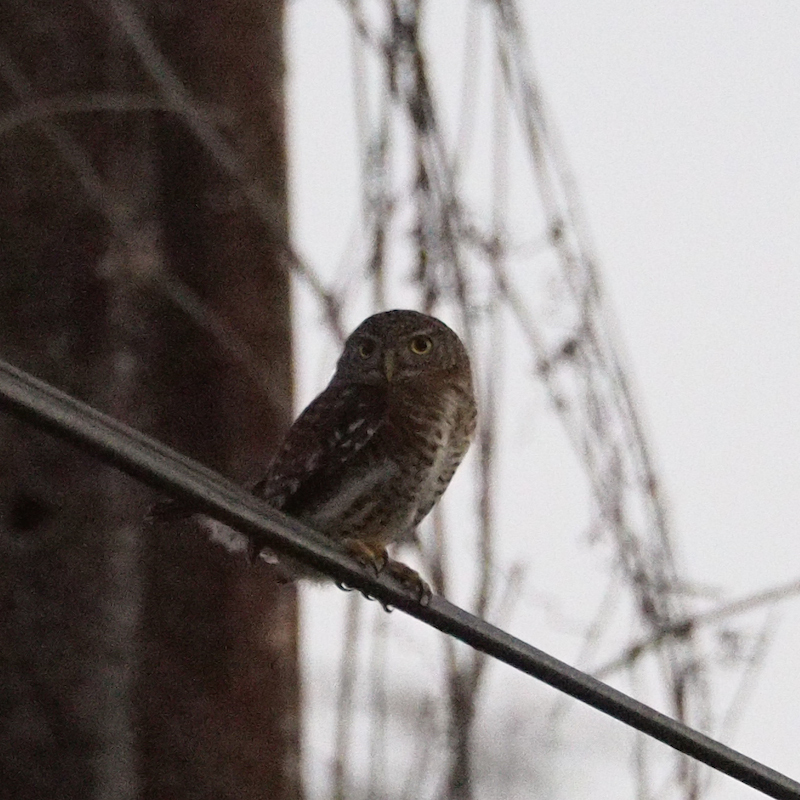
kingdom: Animalia
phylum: Chordata
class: Aves
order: Strigiformes
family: Strigidae
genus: Glaucidium
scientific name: Glaucidium siju
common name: Cuban pygmy-owl
